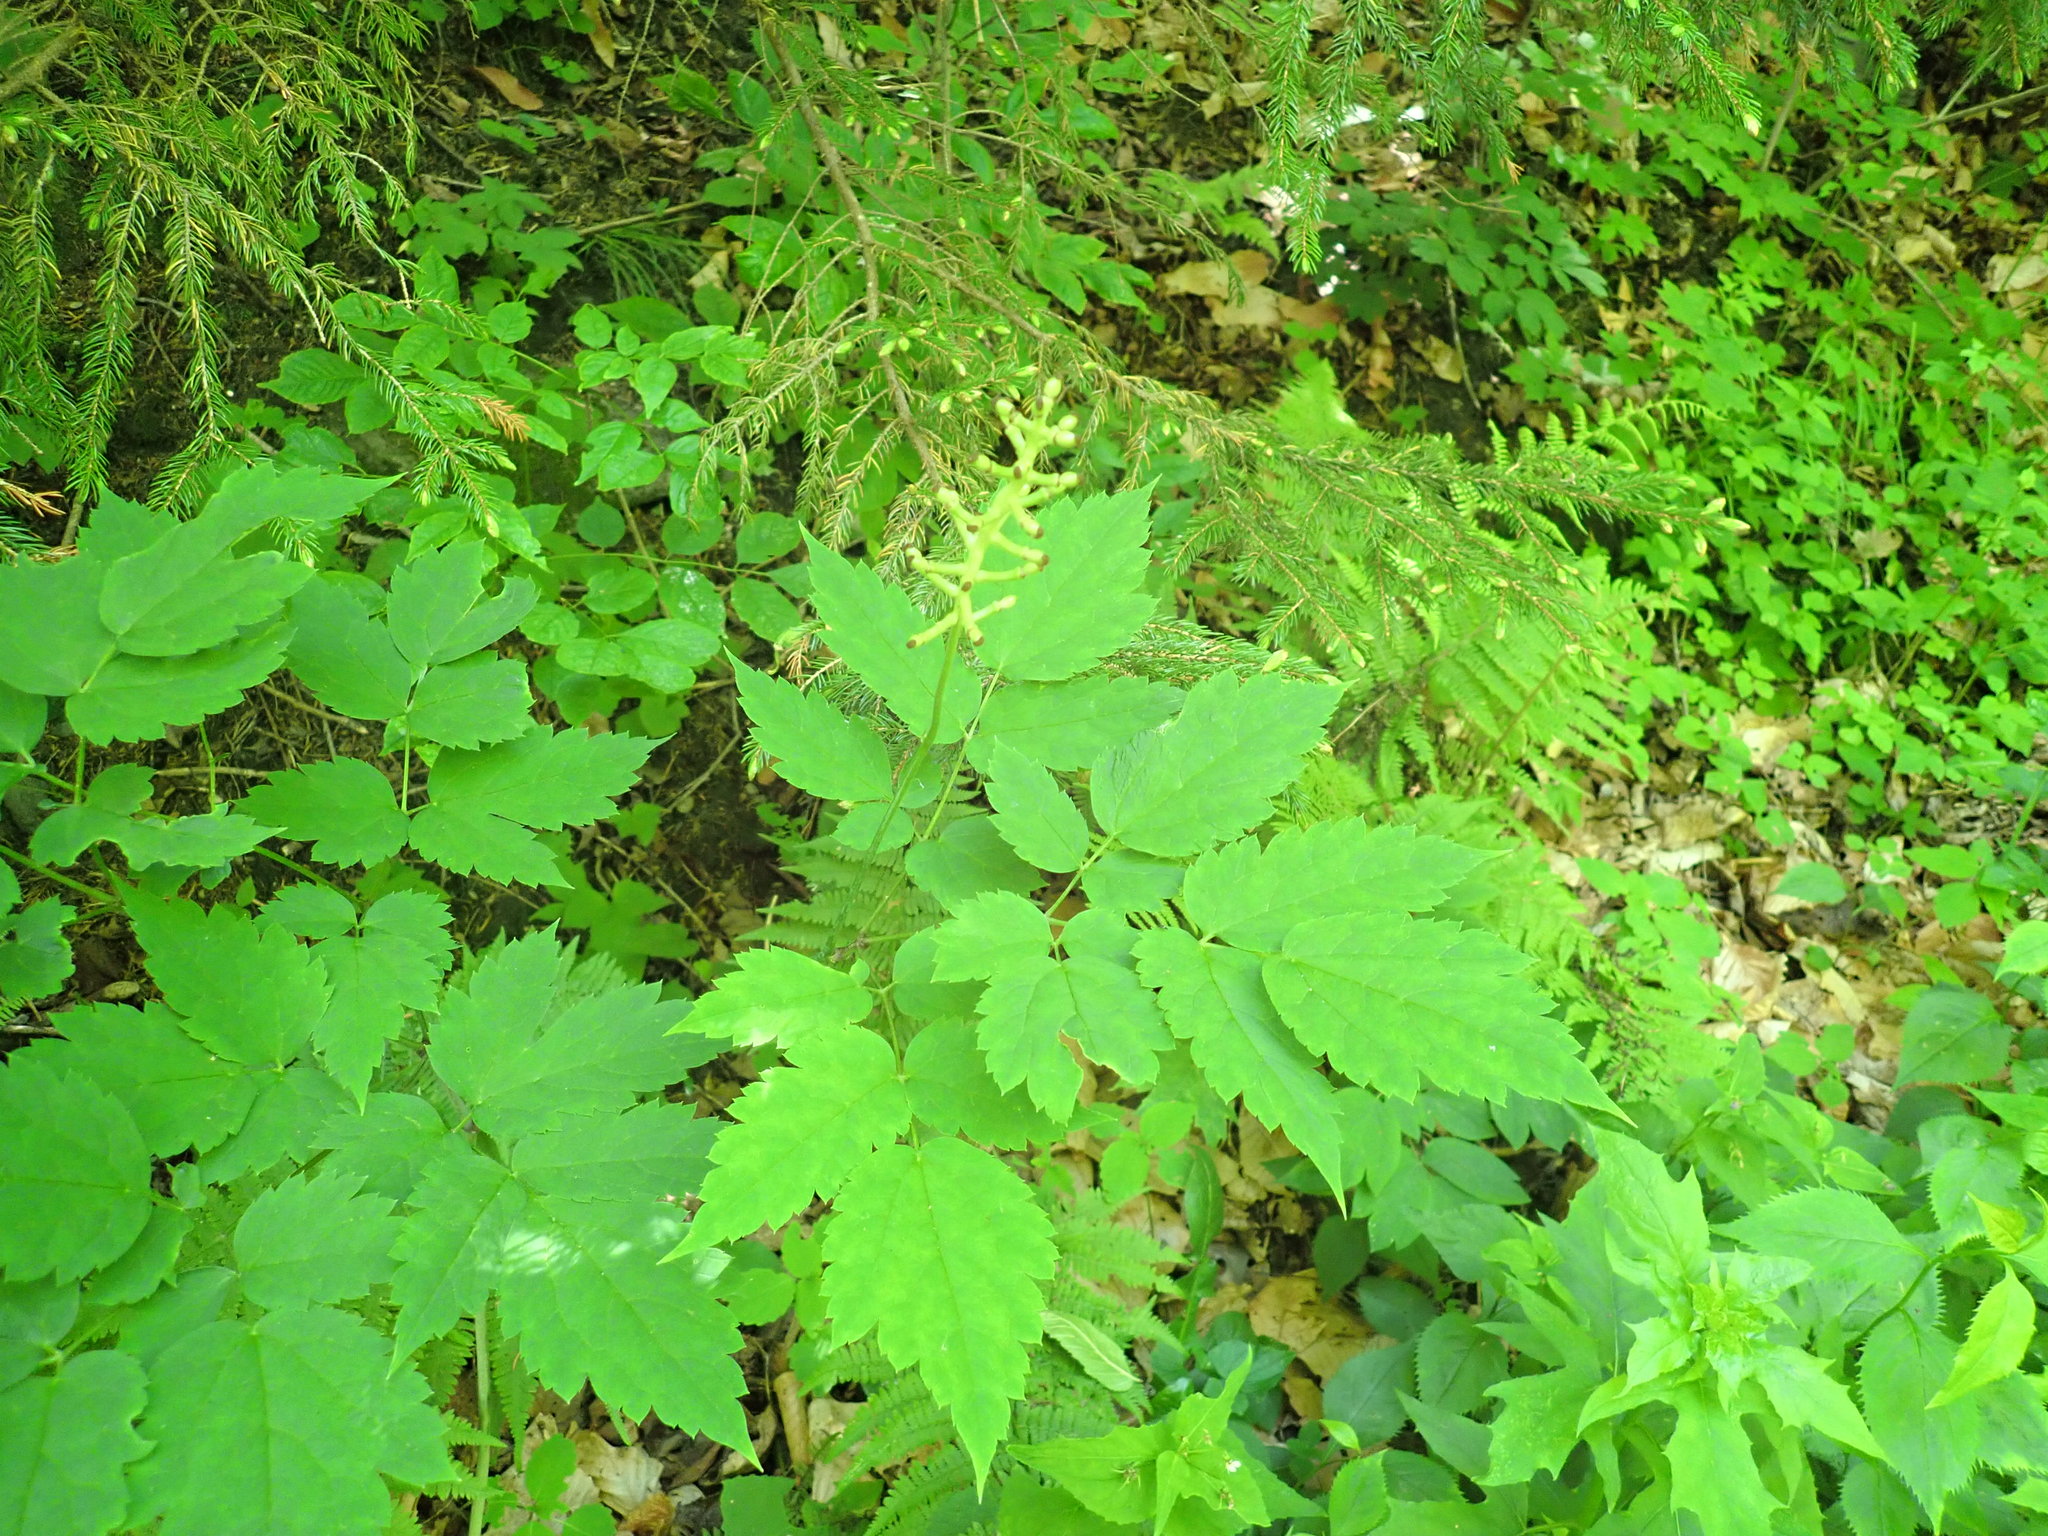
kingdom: Plantae
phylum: Tracheophyta
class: Magnoliopsida
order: Ranunculales
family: Ranunculaceae
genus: Actaea
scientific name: Actaea pachypoda
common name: Doll's-eyes
